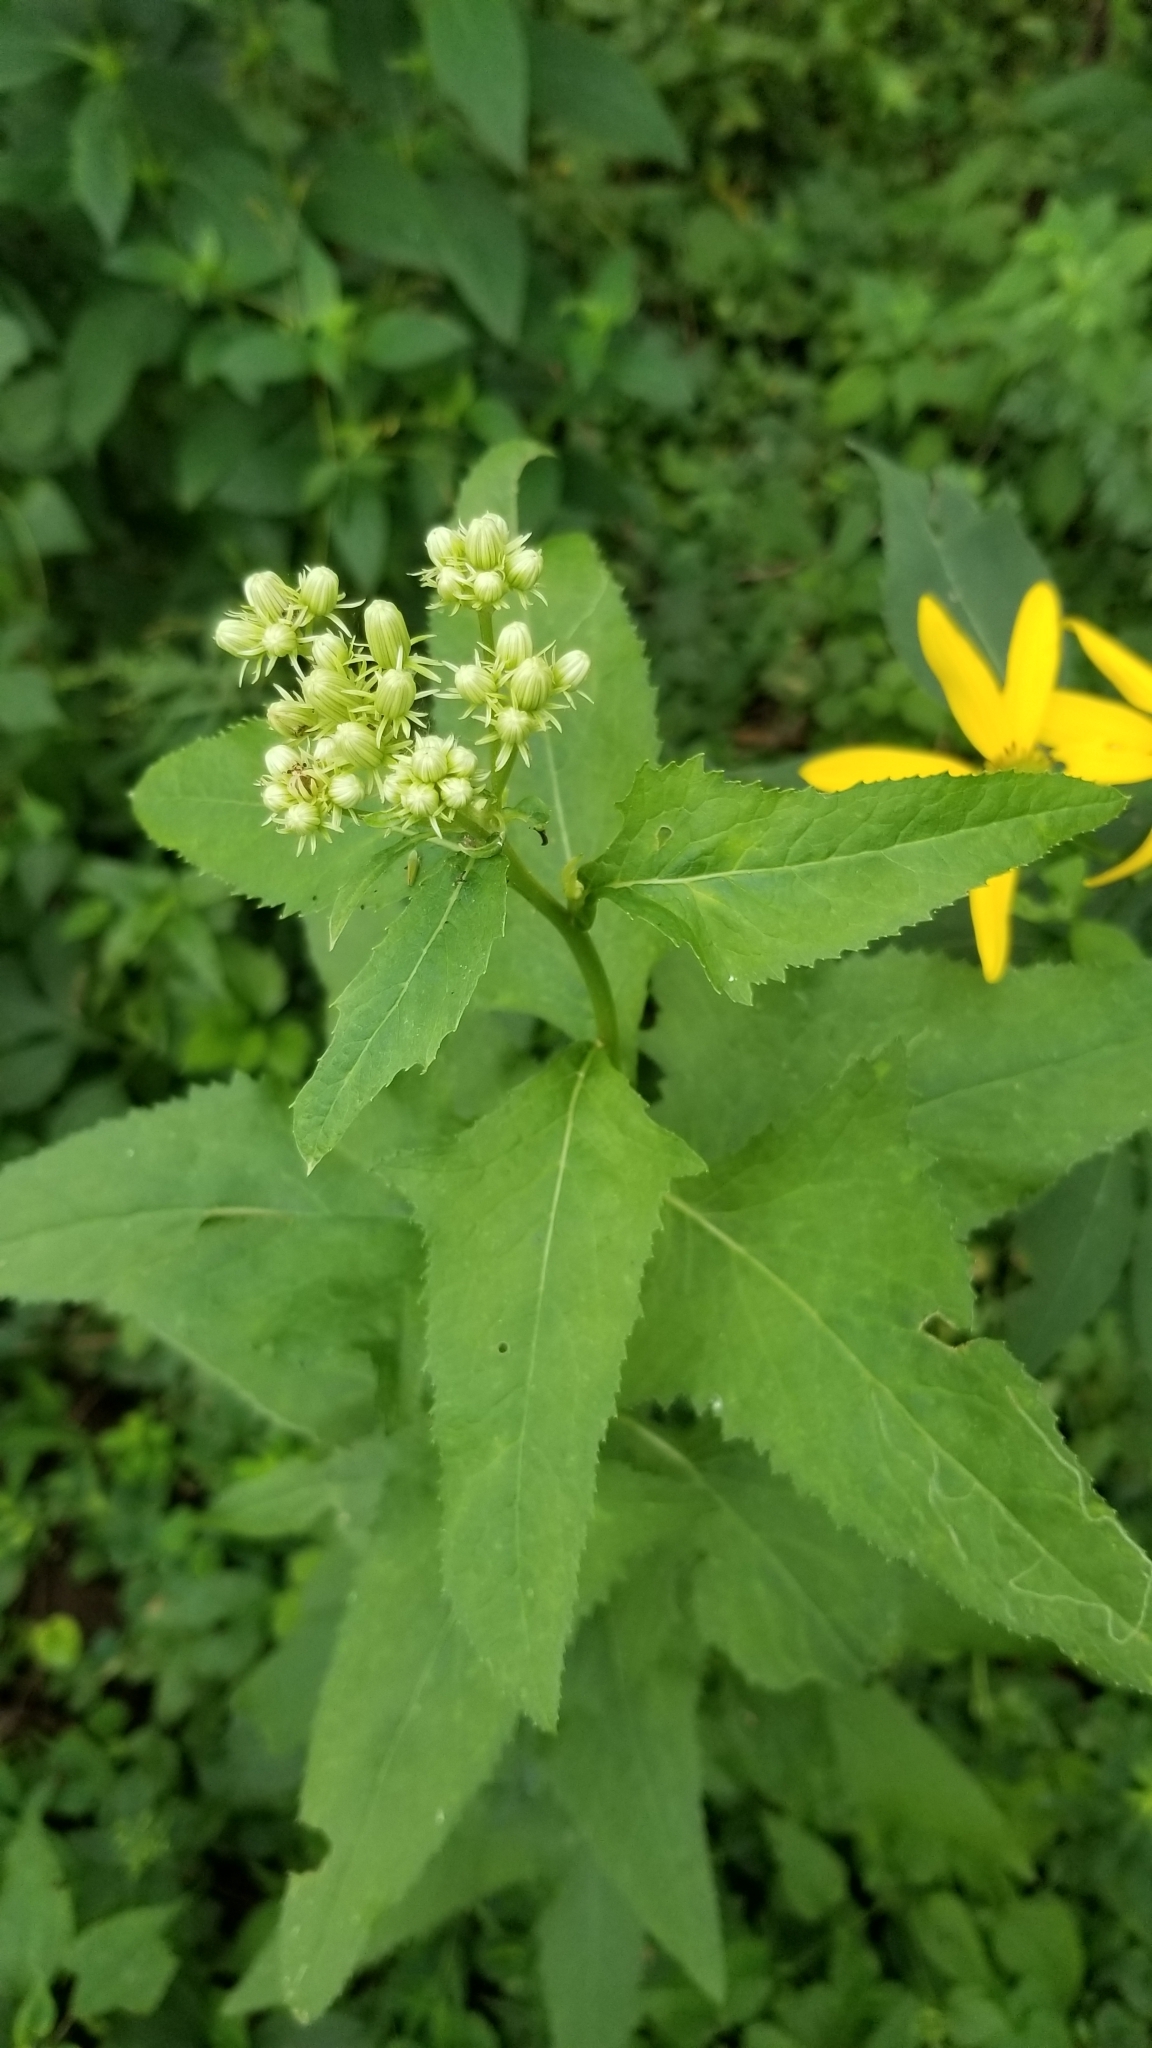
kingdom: Plantae
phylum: Tracheophyta
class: Magnoliopsida
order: Asterales
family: Asteraceae
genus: Hasteola
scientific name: Hasteola suaveolens
